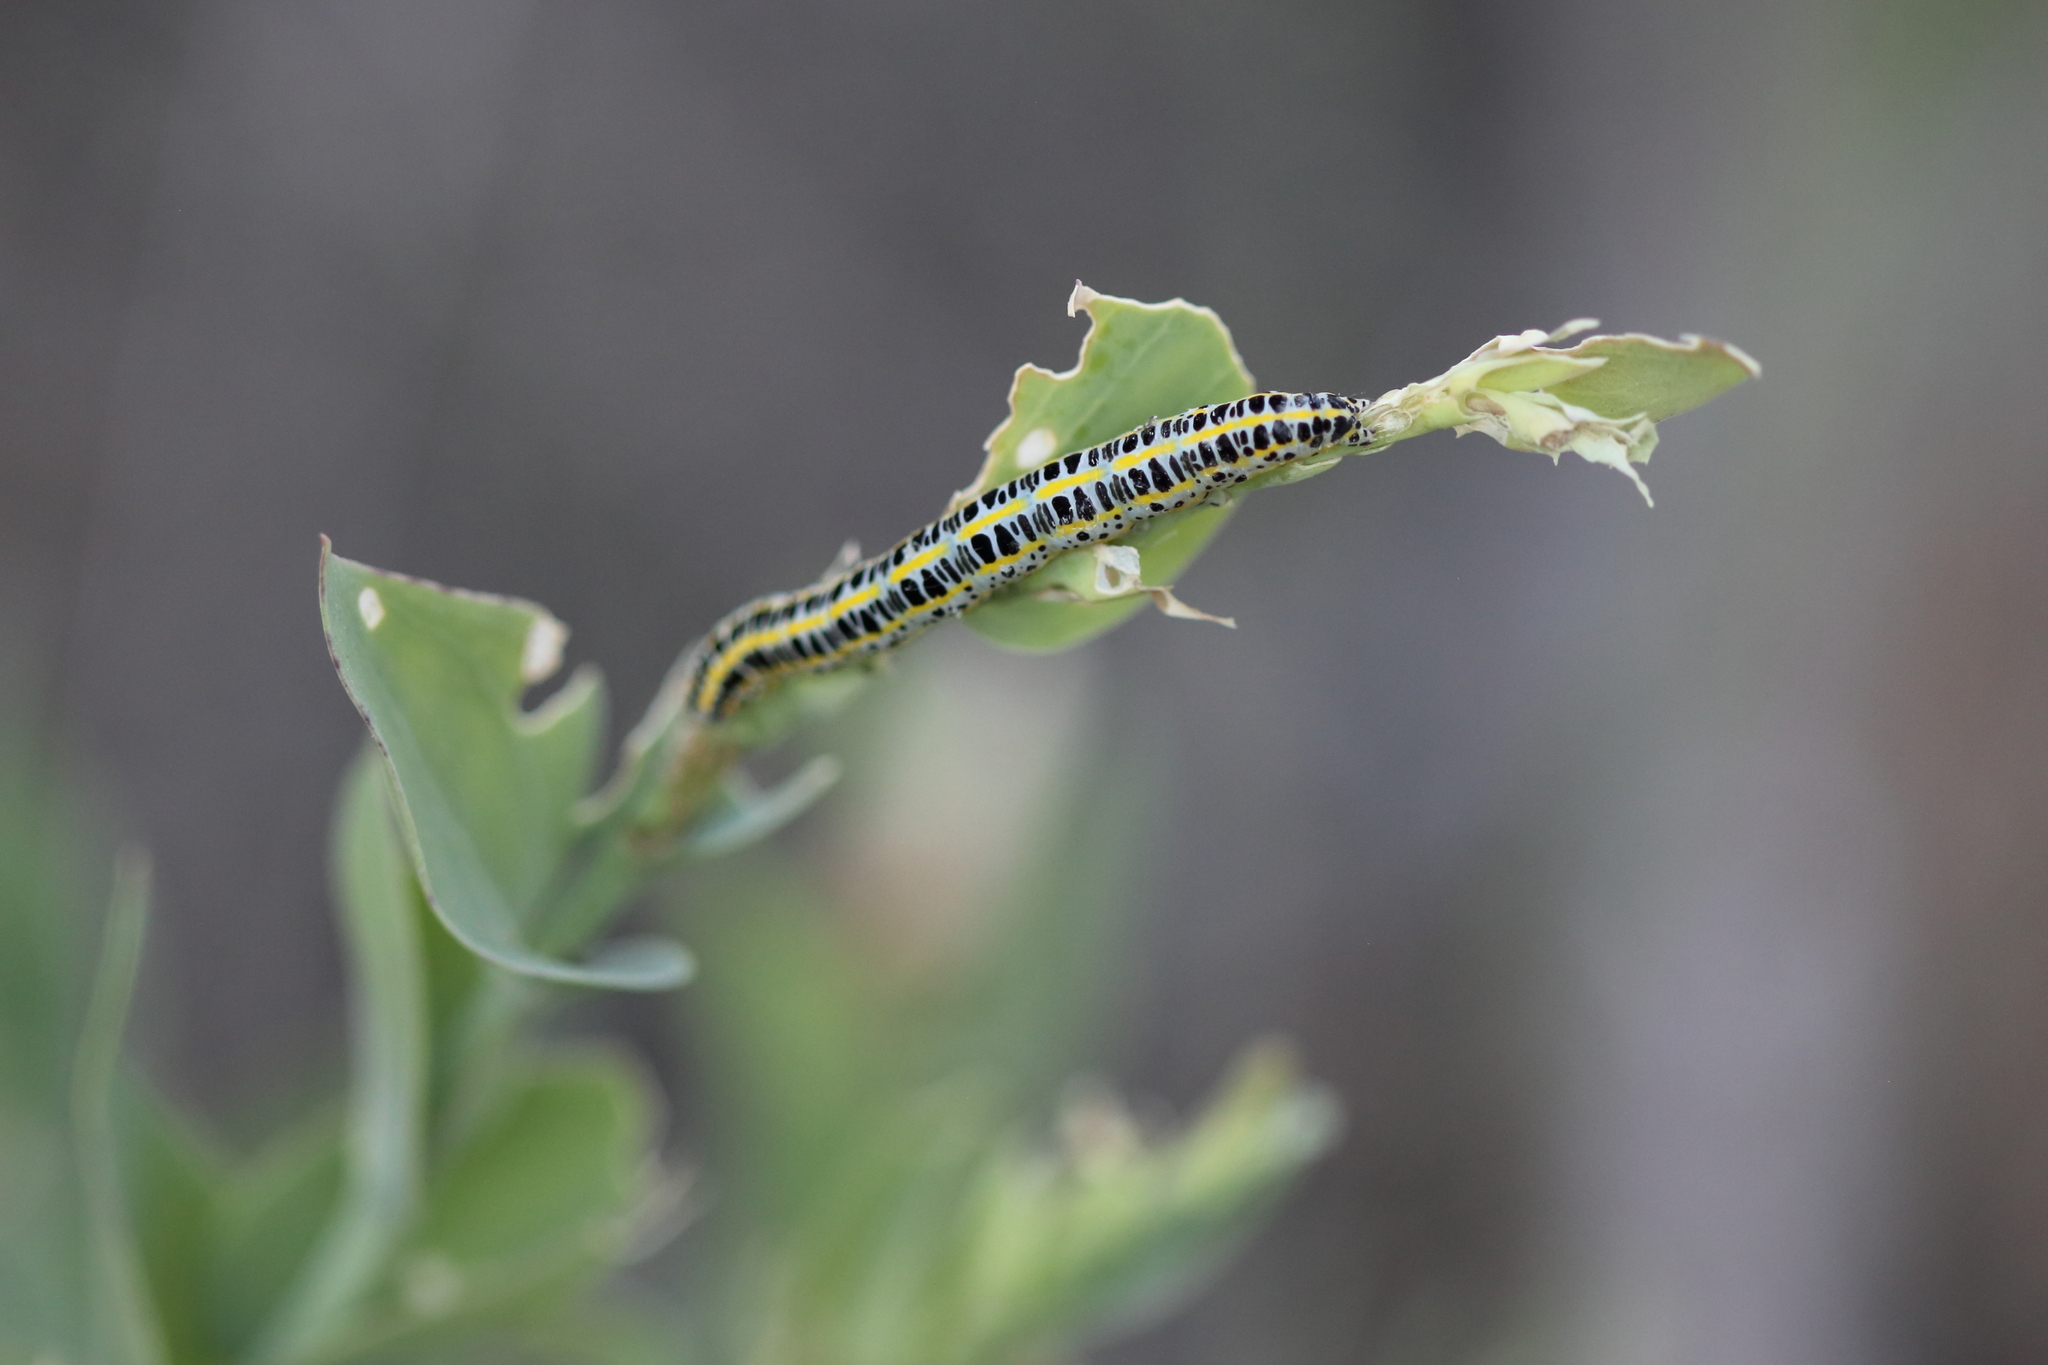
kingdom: Animalia
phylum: Arthropoda
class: Insecta
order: Lepidoptera
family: Noctuidae
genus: Calophasia
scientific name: Calophasia lunula
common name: Toadflax brocade
